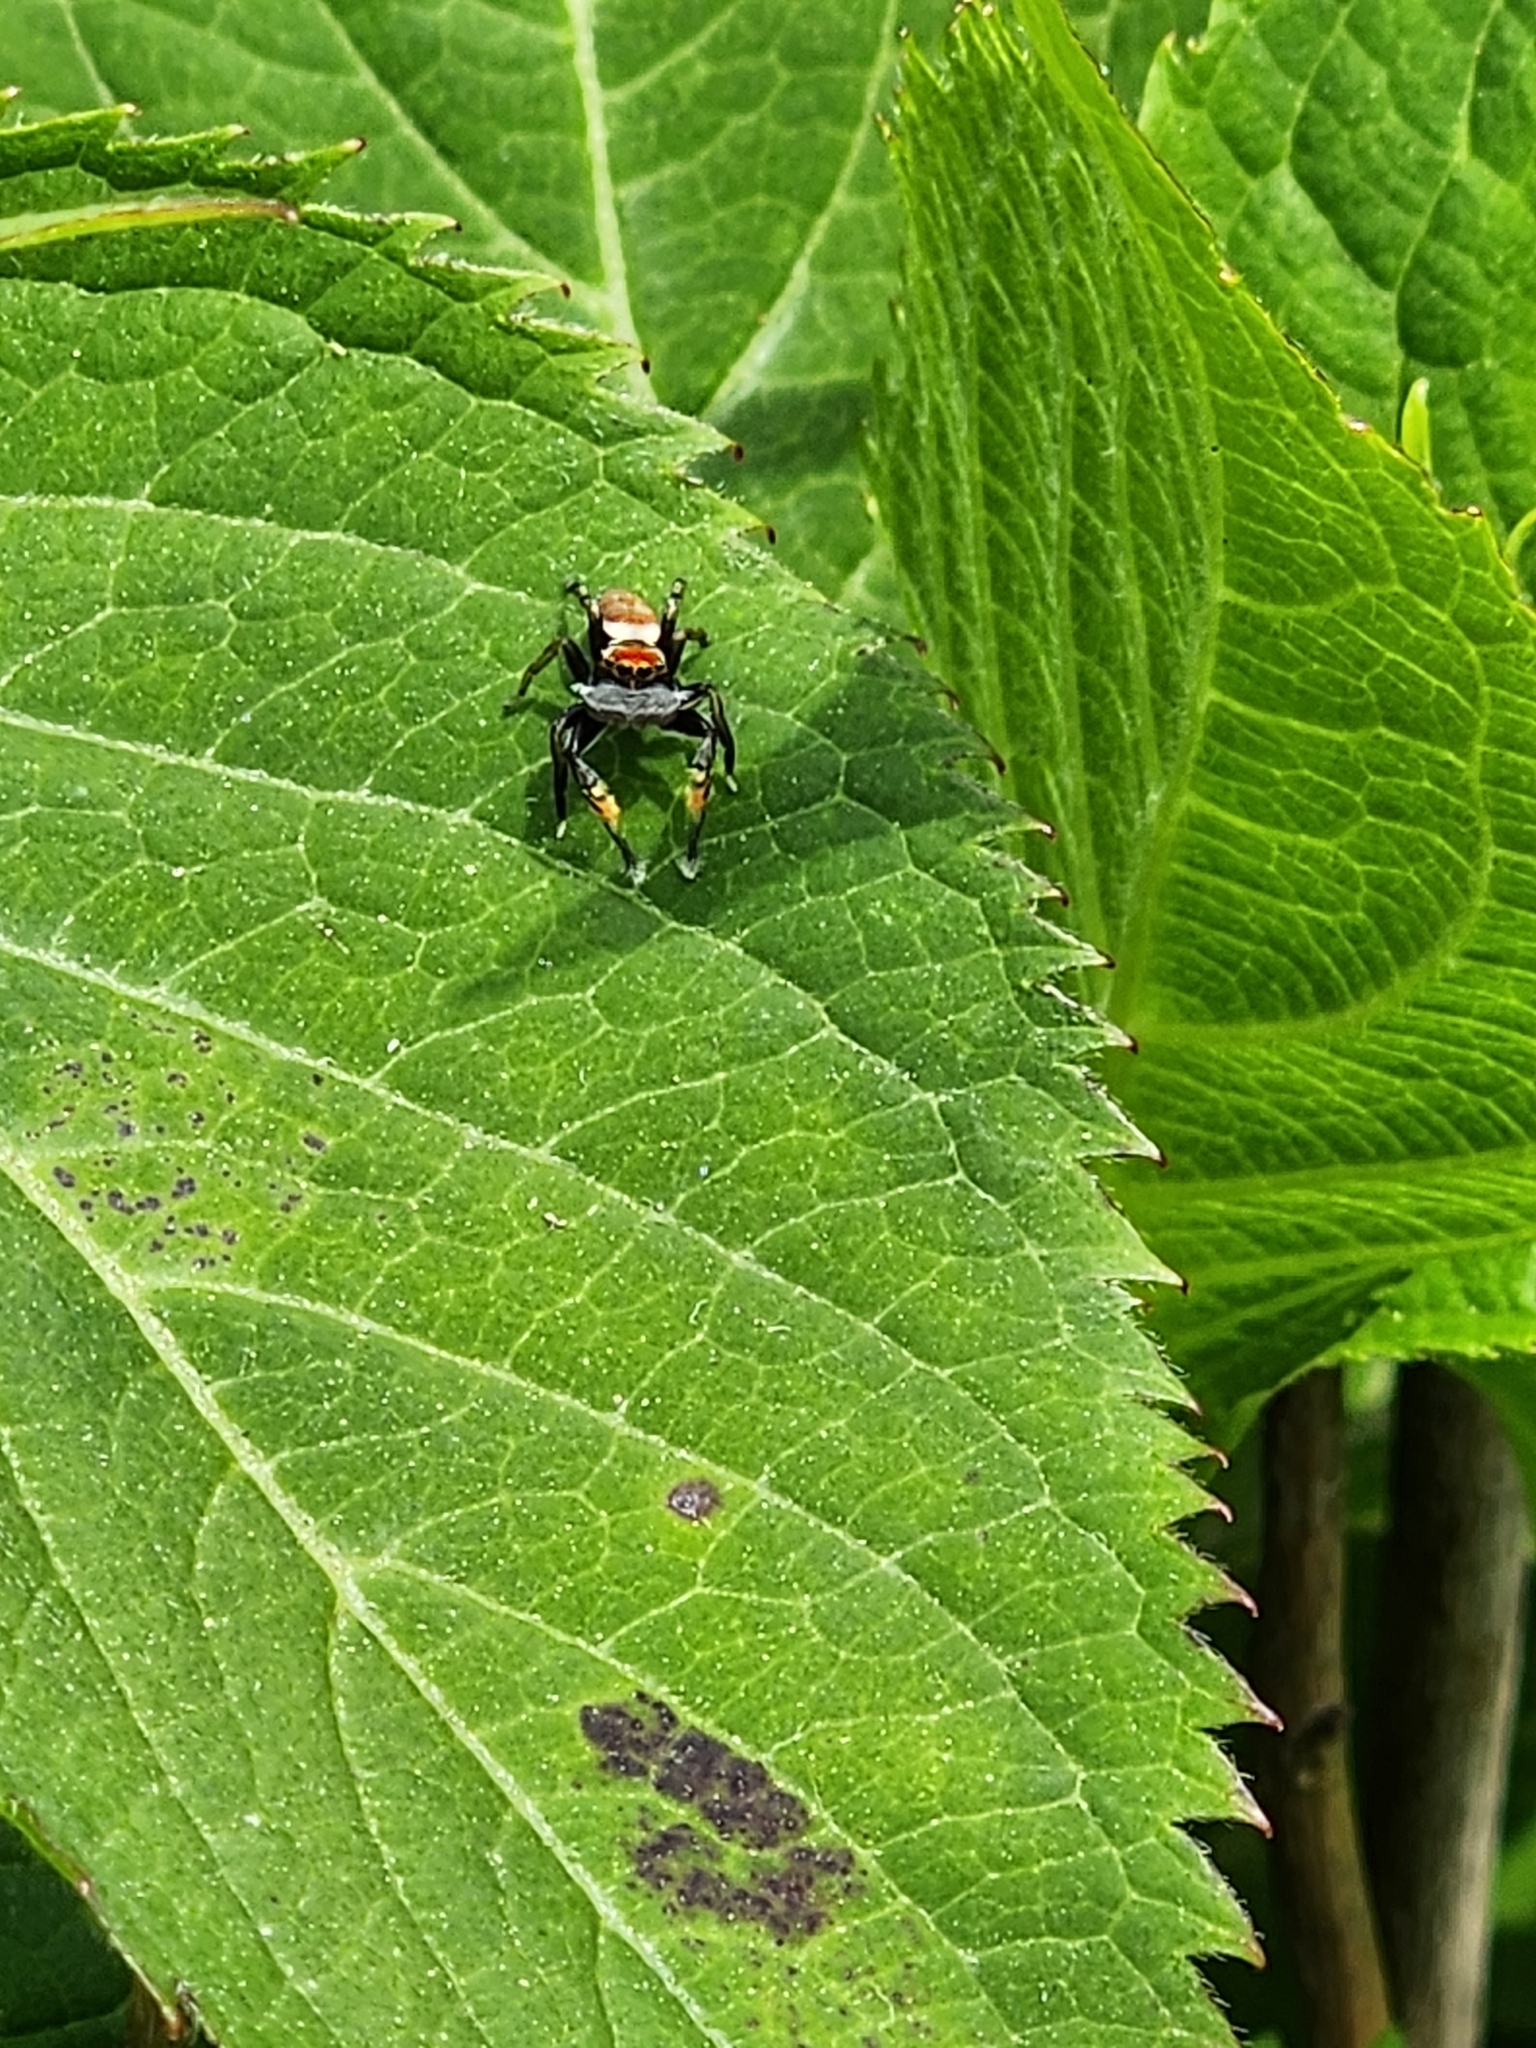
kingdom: Animalia
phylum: Arthropoda
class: Arachnida
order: Araneae
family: Salticidae
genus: Marpissa
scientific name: Marpissa pulla
